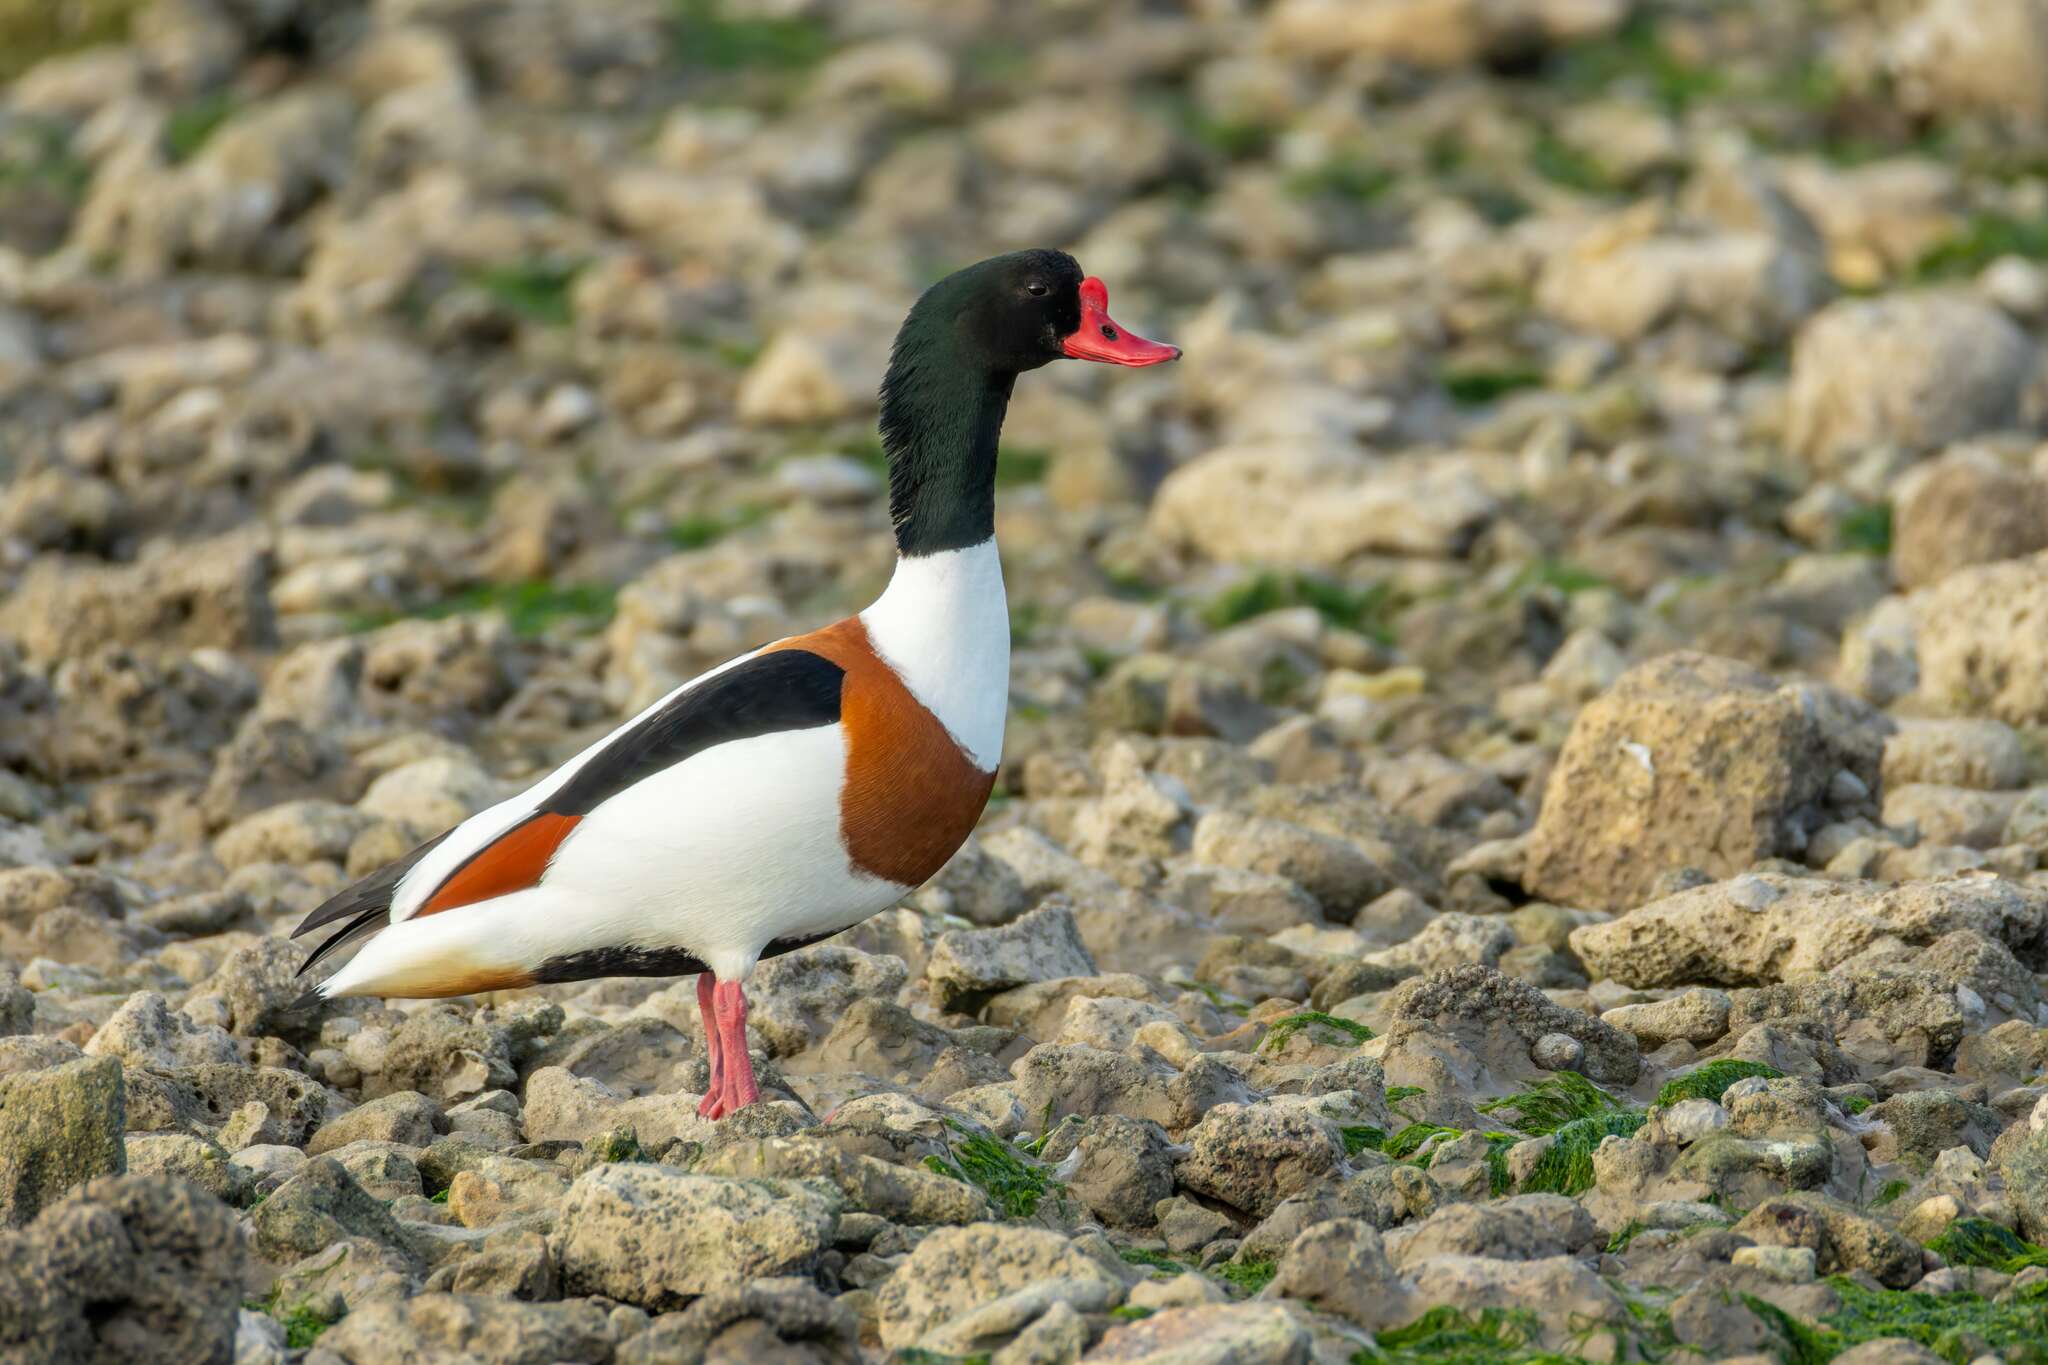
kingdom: Animalia
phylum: Chordata
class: Aves
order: Anseriformes
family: Anatidae
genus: Tadorna
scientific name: Tadorna tadorna
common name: Common shelduck
